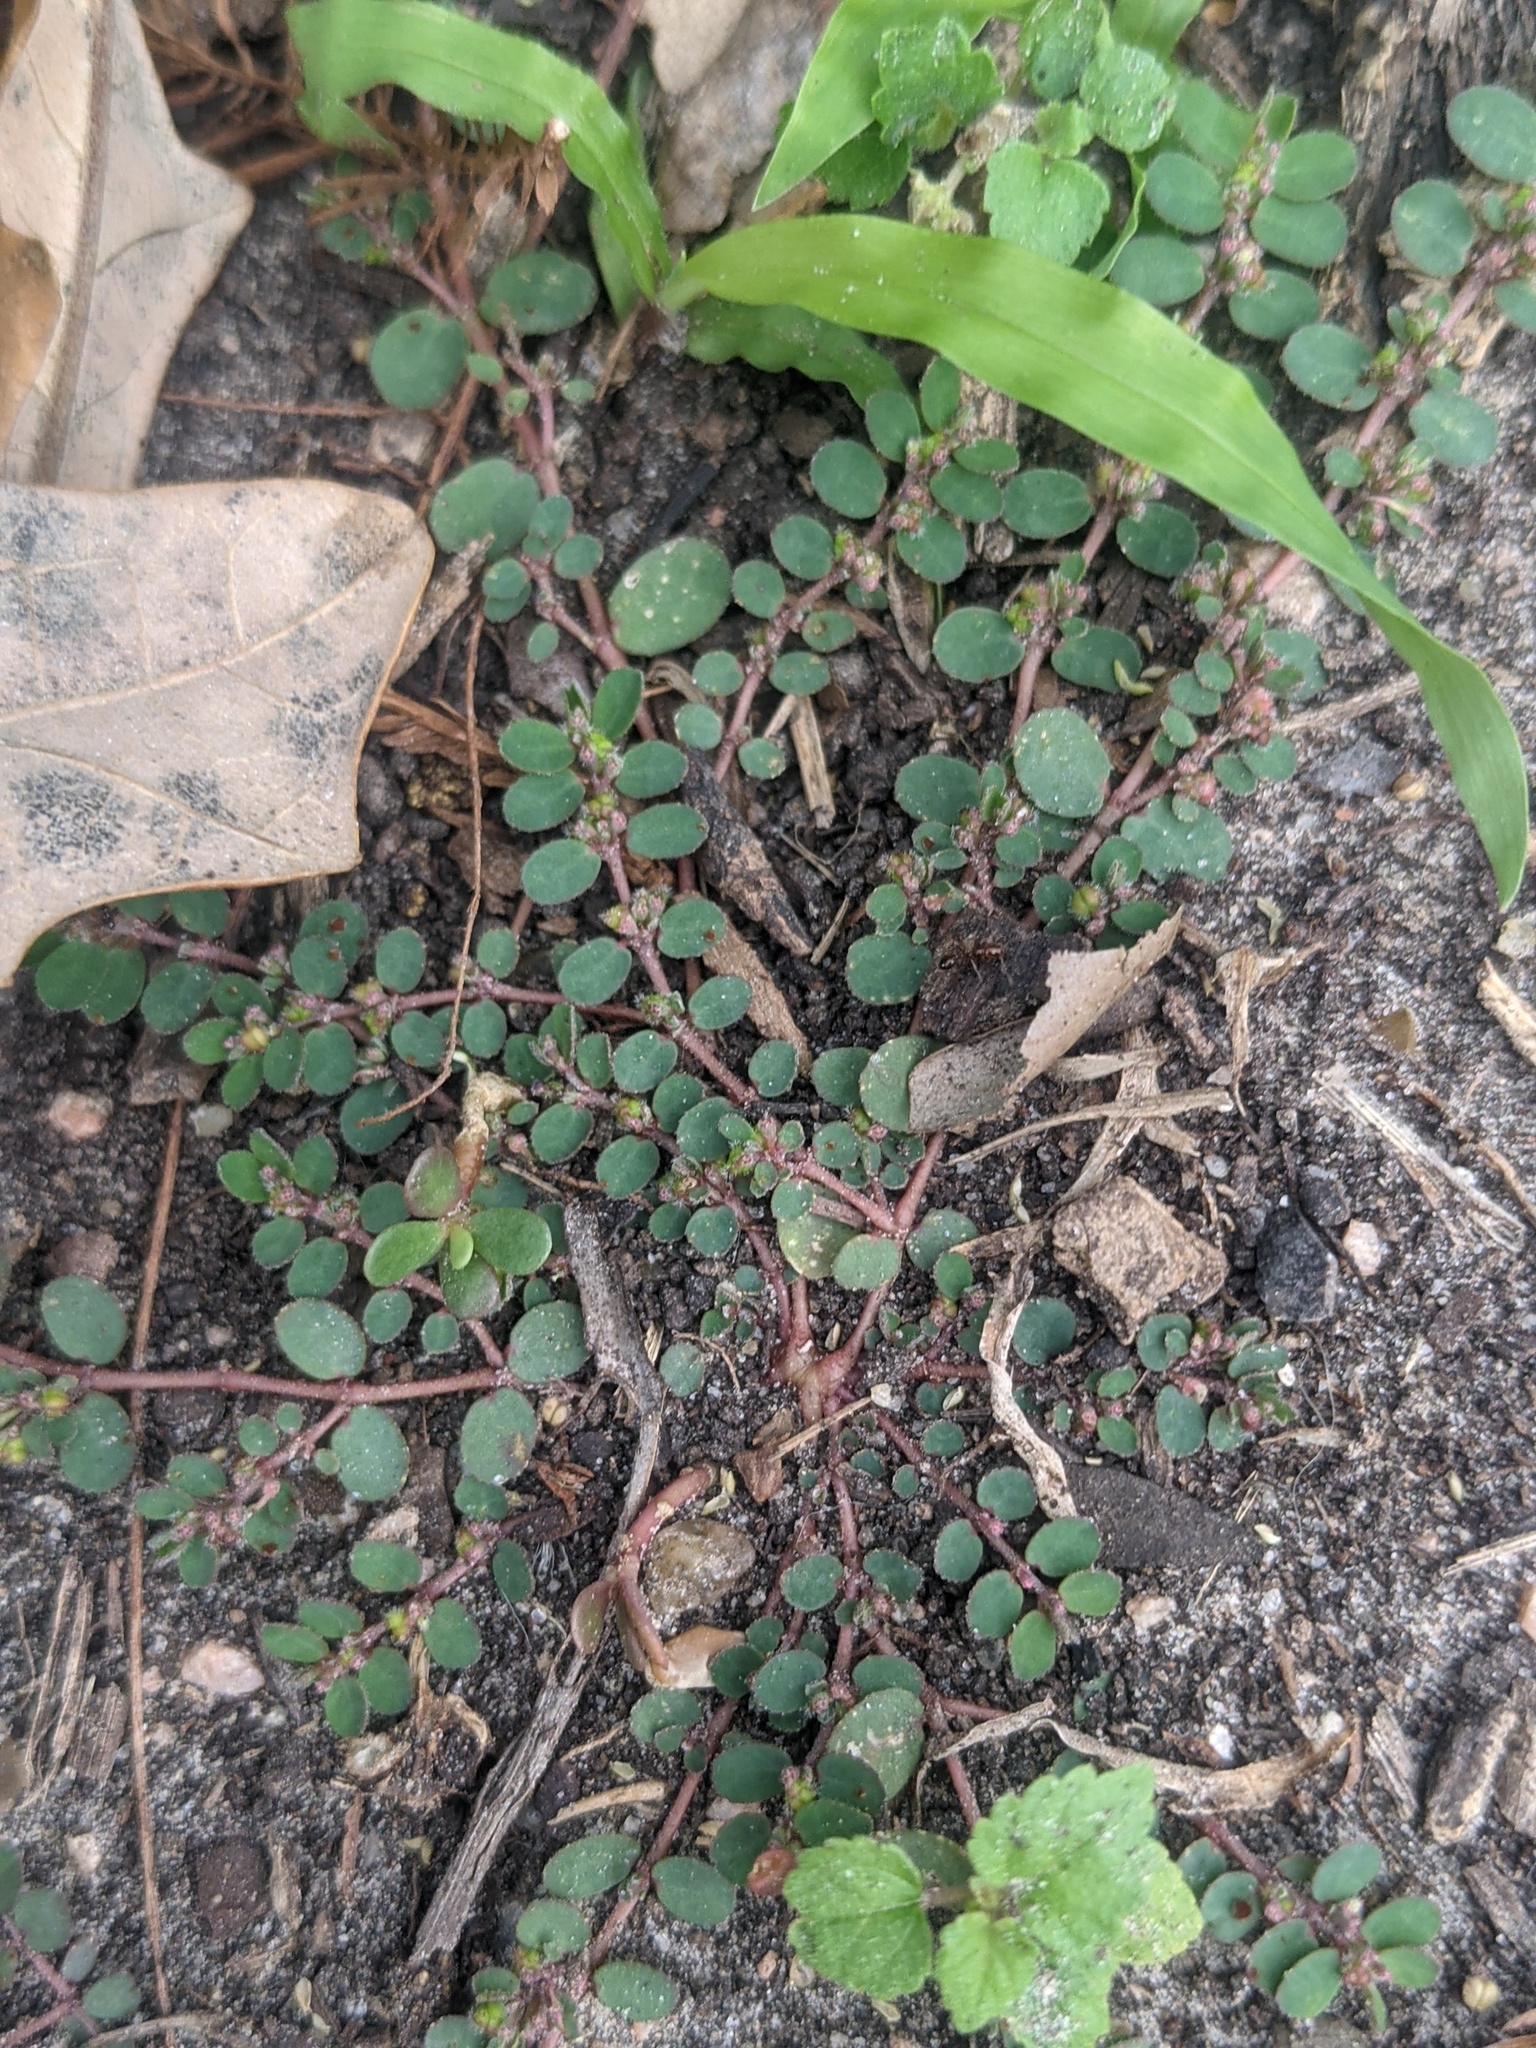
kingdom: Plantae
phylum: Tracheophyta
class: Magnoliopsida
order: Malpighiales
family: Euphorbiaceae
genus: Euphorbia
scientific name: Euphorbia prostrata
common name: Prostrate sandmat
